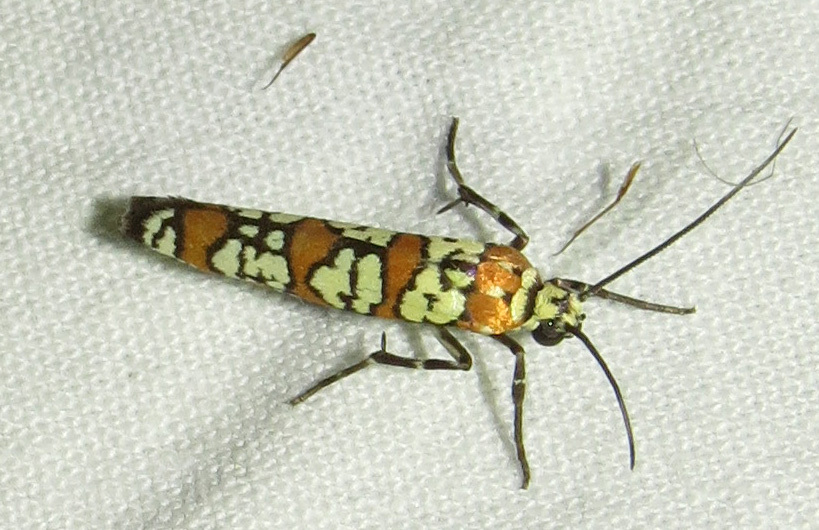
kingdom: Animalia
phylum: Arthropoda
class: Insecta
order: Lepidoptera
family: Attevidae
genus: Atteva
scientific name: Atteva punctella
